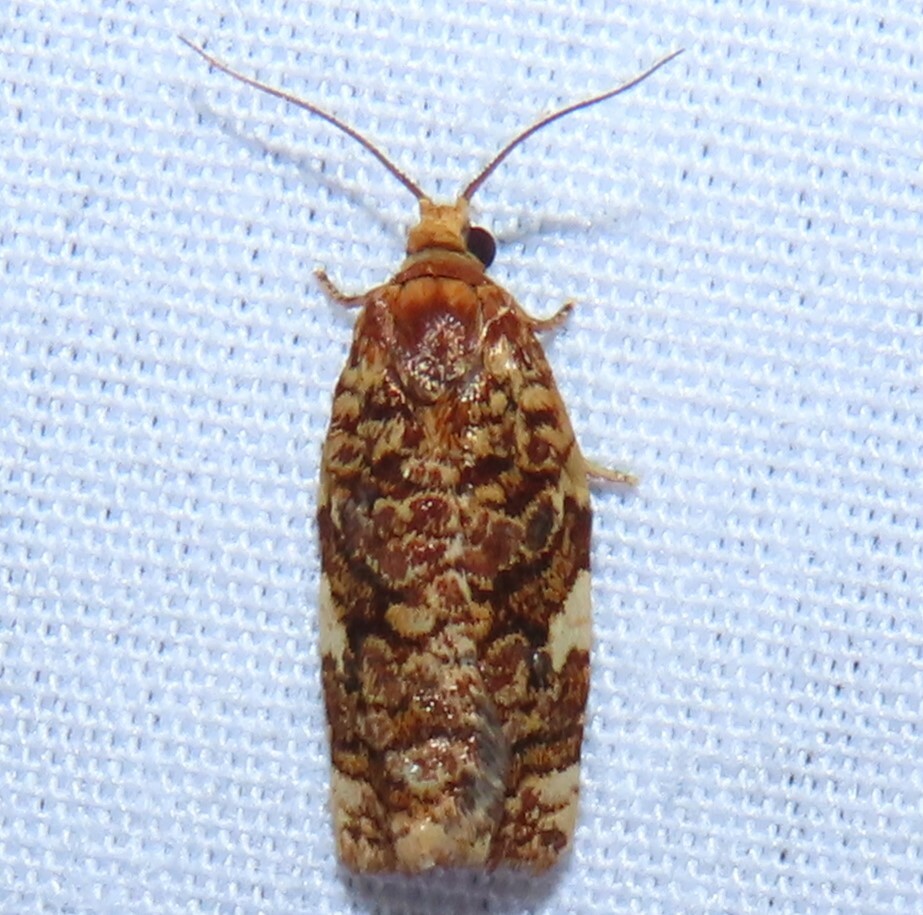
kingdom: Animalia
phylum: Arthropoda
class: Insecta
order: Lepidoptera
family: Tortricidae
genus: Archips
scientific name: Archips argyrospila
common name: Fruit-tree leafroller moth
